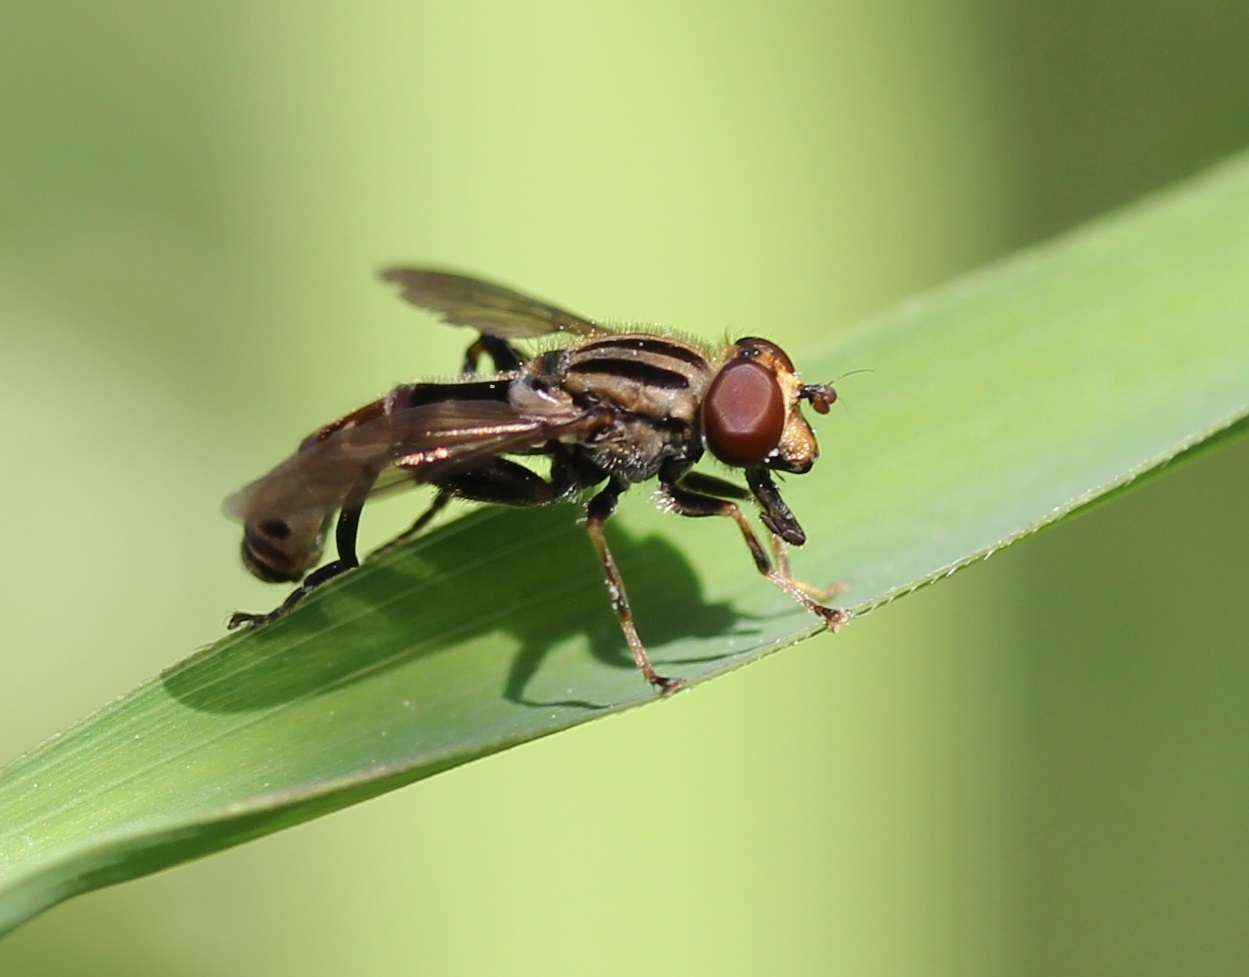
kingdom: Animalia
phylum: Arthropoda
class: Insecta
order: Diptera
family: Syrphidae
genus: Anasimyia
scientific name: Anasimyia distinctus
